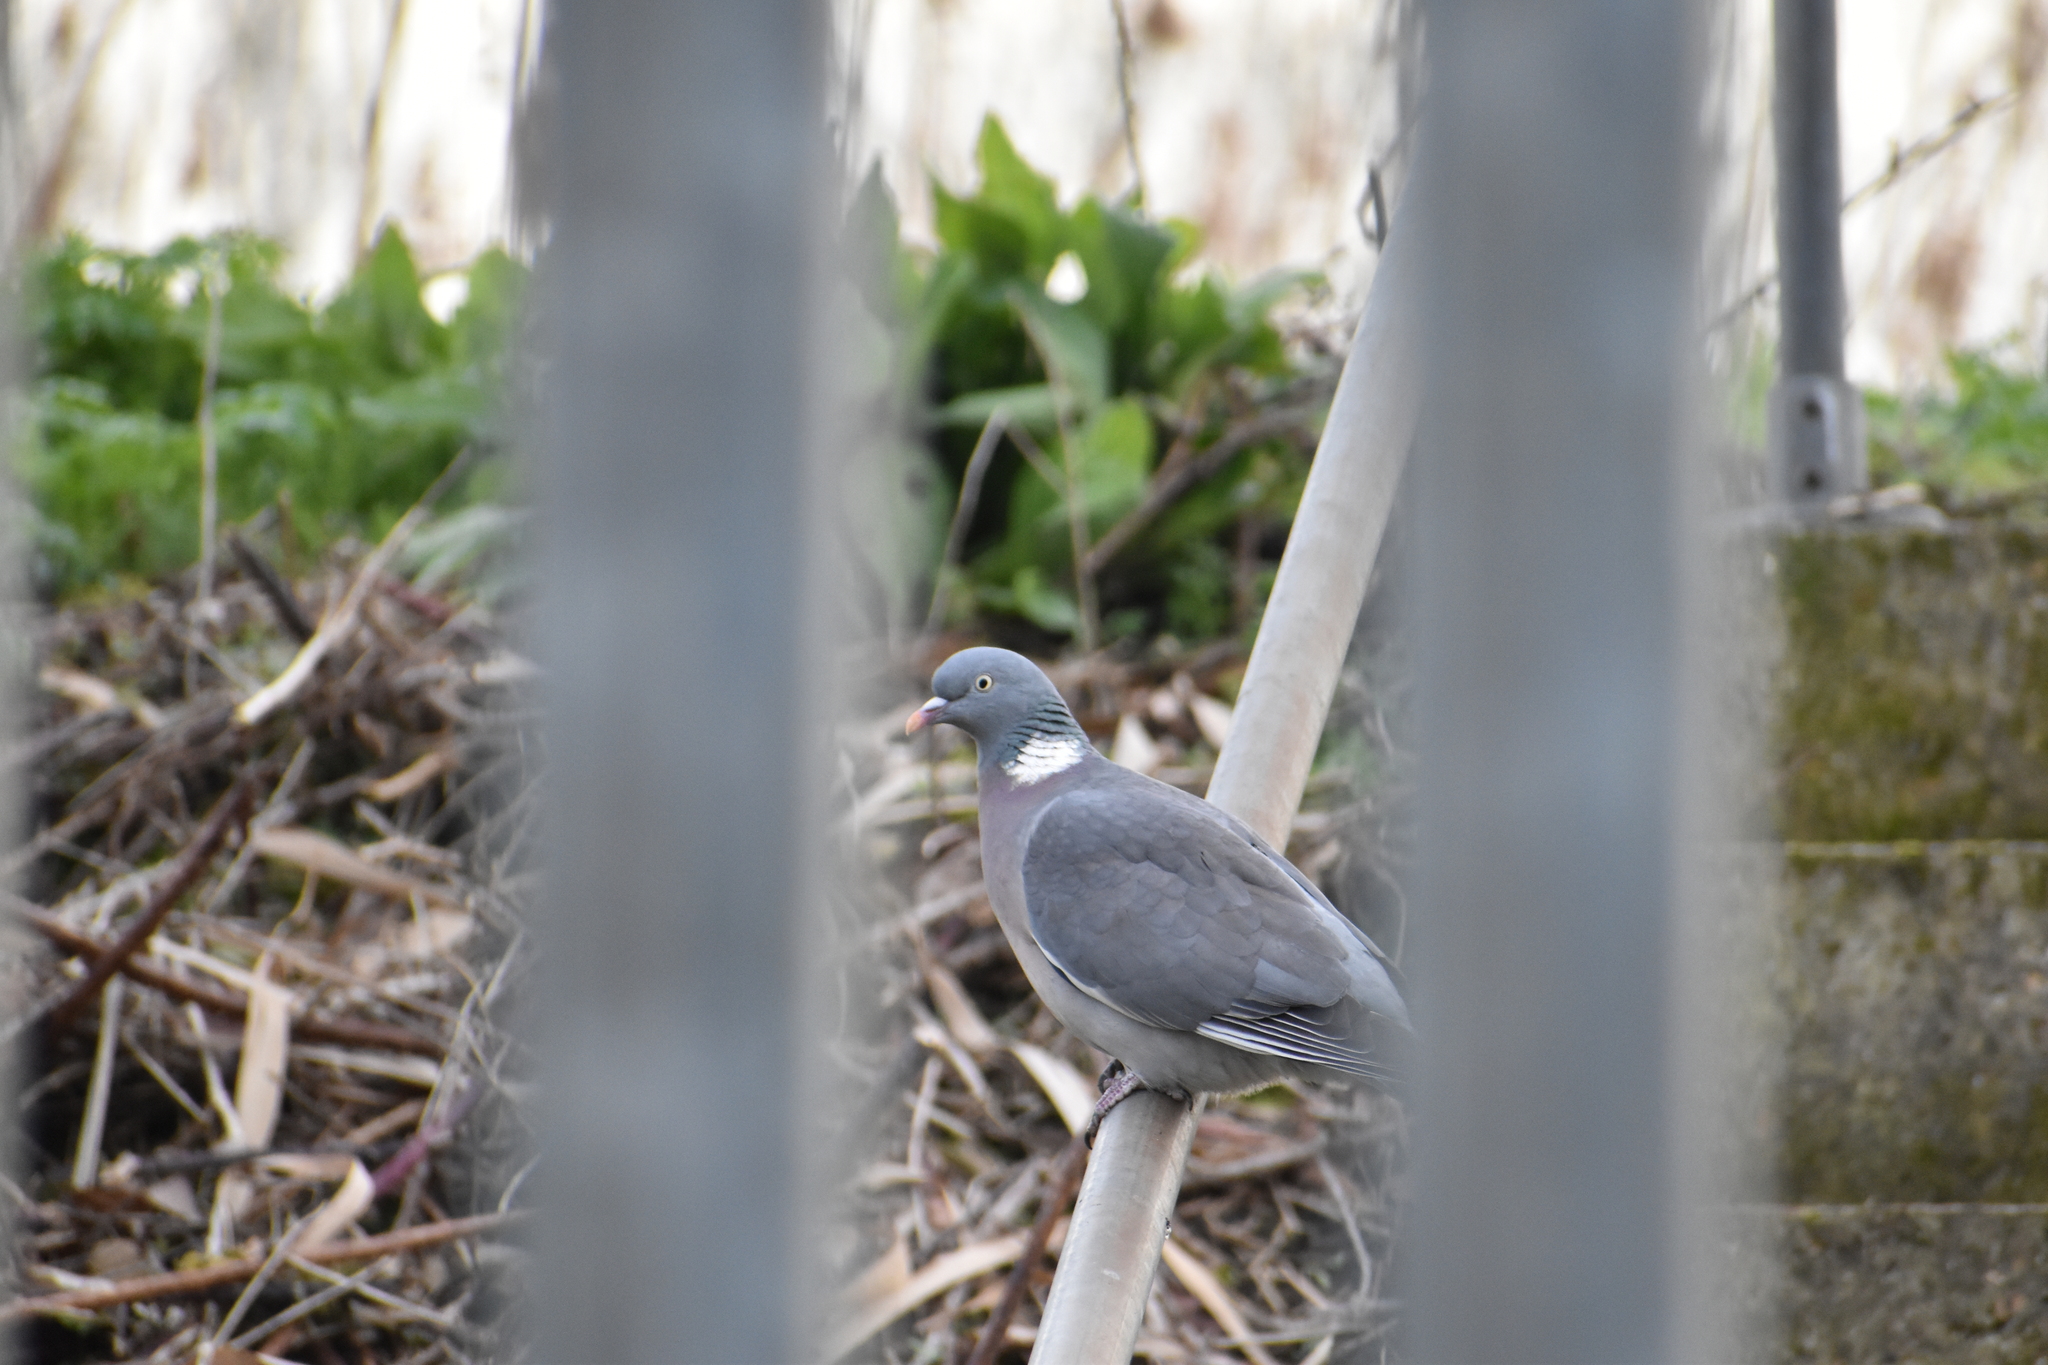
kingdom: Animalia
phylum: Chordata
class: Aves
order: Columbiformes
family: Columbidae
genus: Columba
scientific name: Columba palumbus
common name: Common wood pigeon
